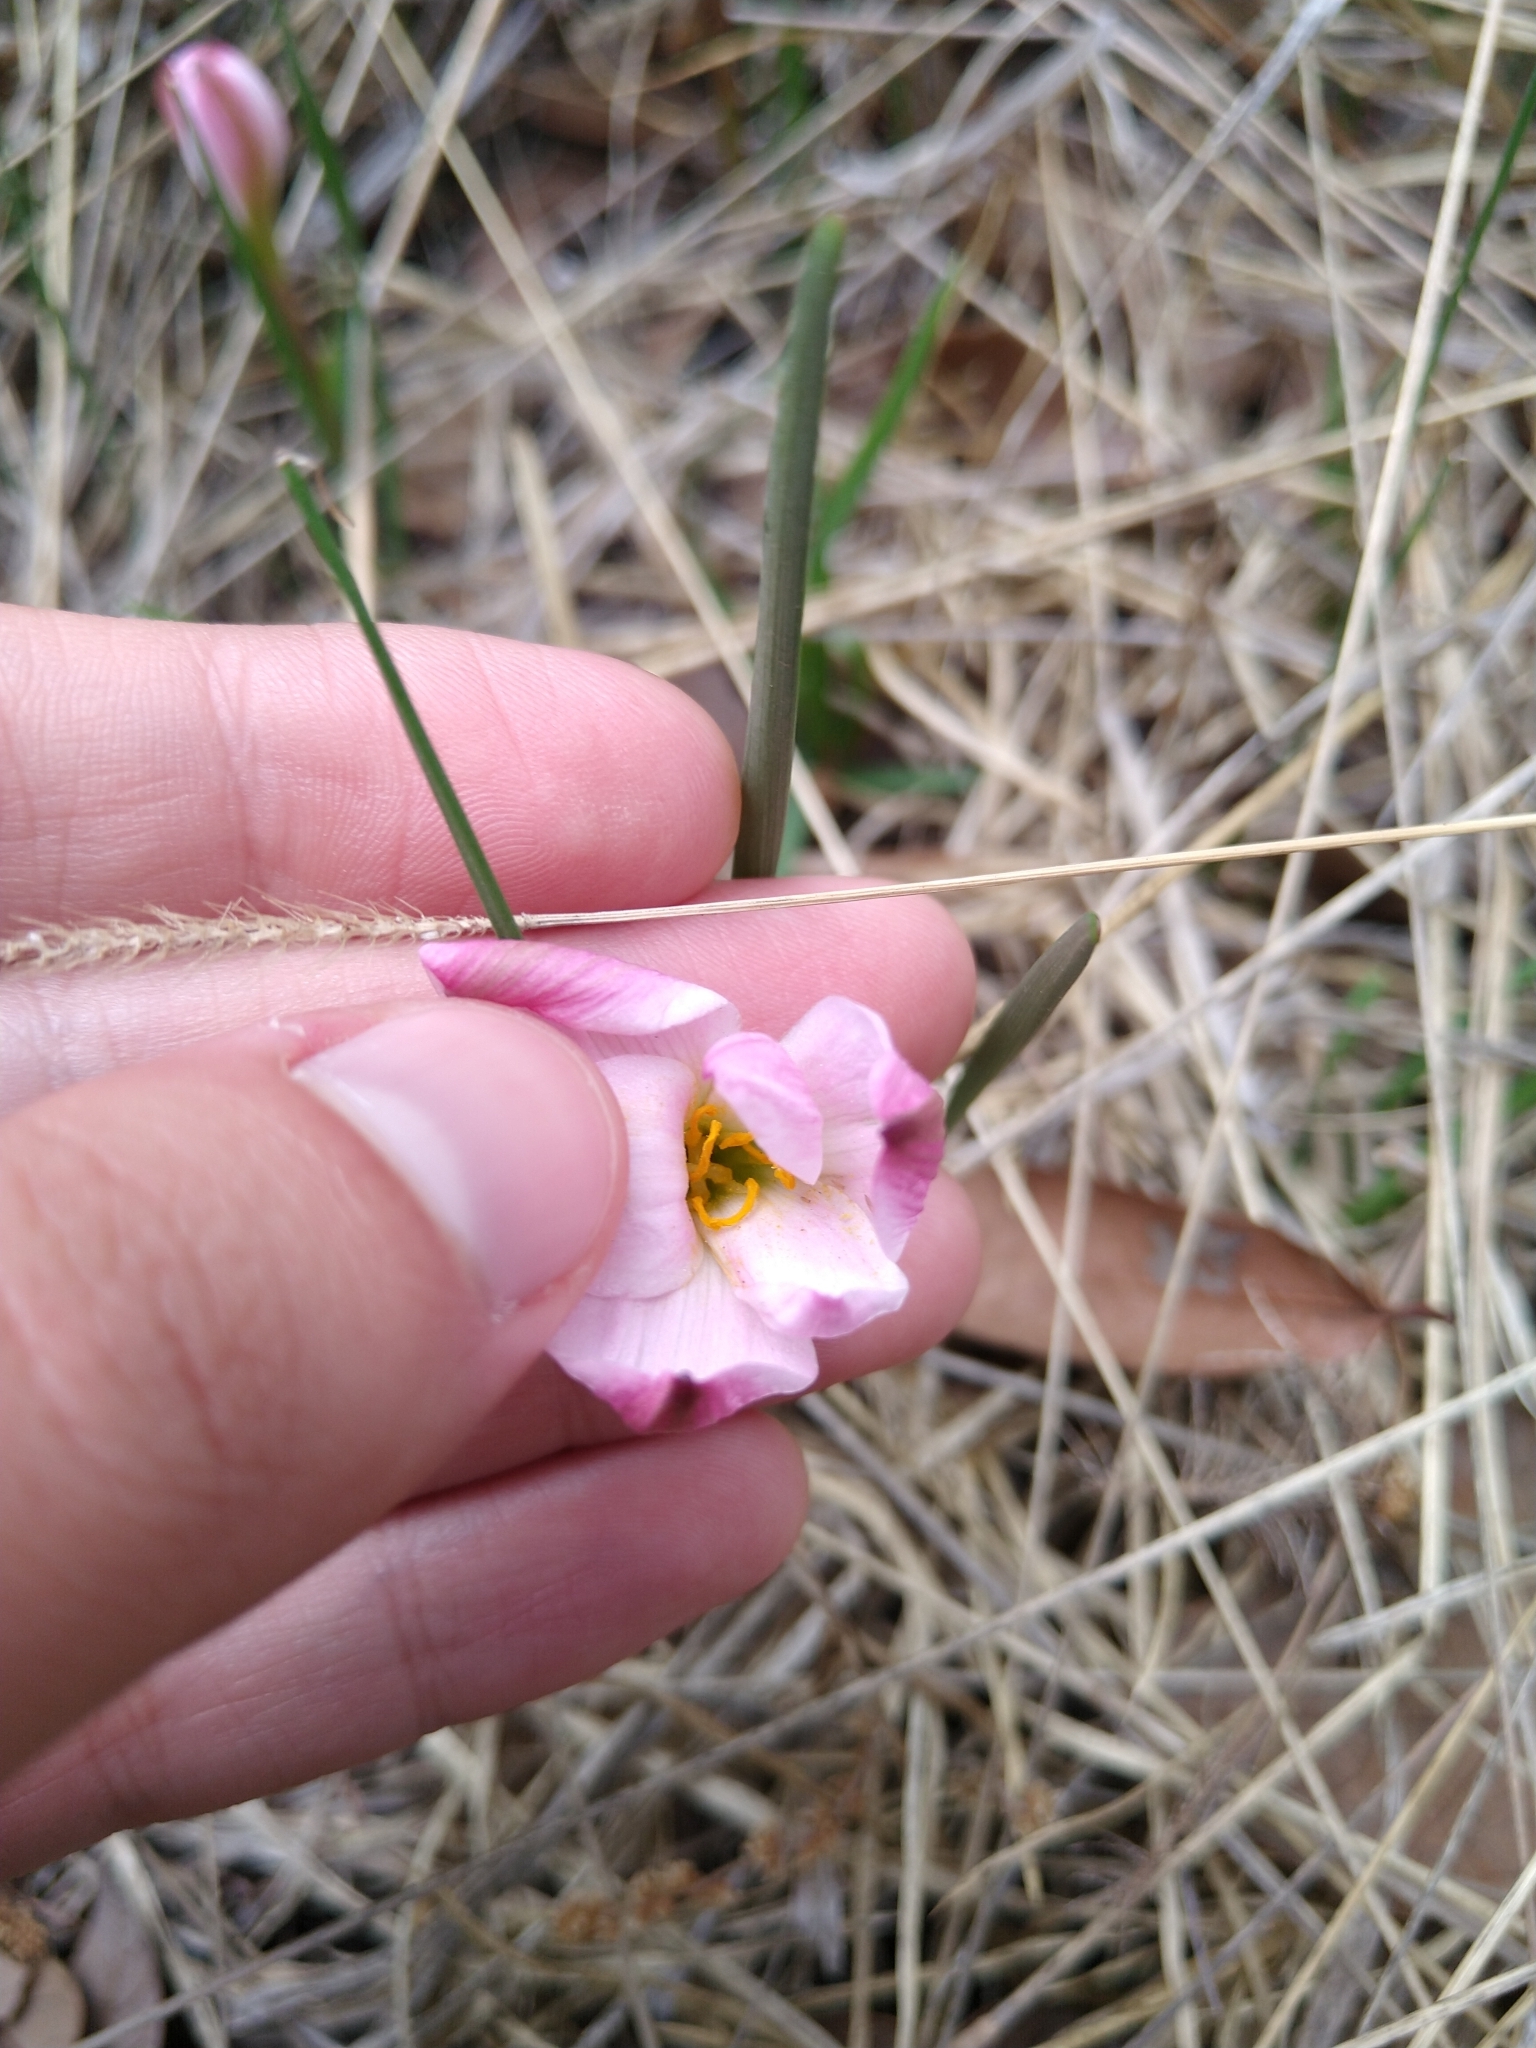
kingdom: Plantae
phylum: Tracheophyta
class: Liliopsida
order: Asparagales
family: Amaryllidaceae
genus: Zephyranthes
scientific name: Zephyranthes fosteri
